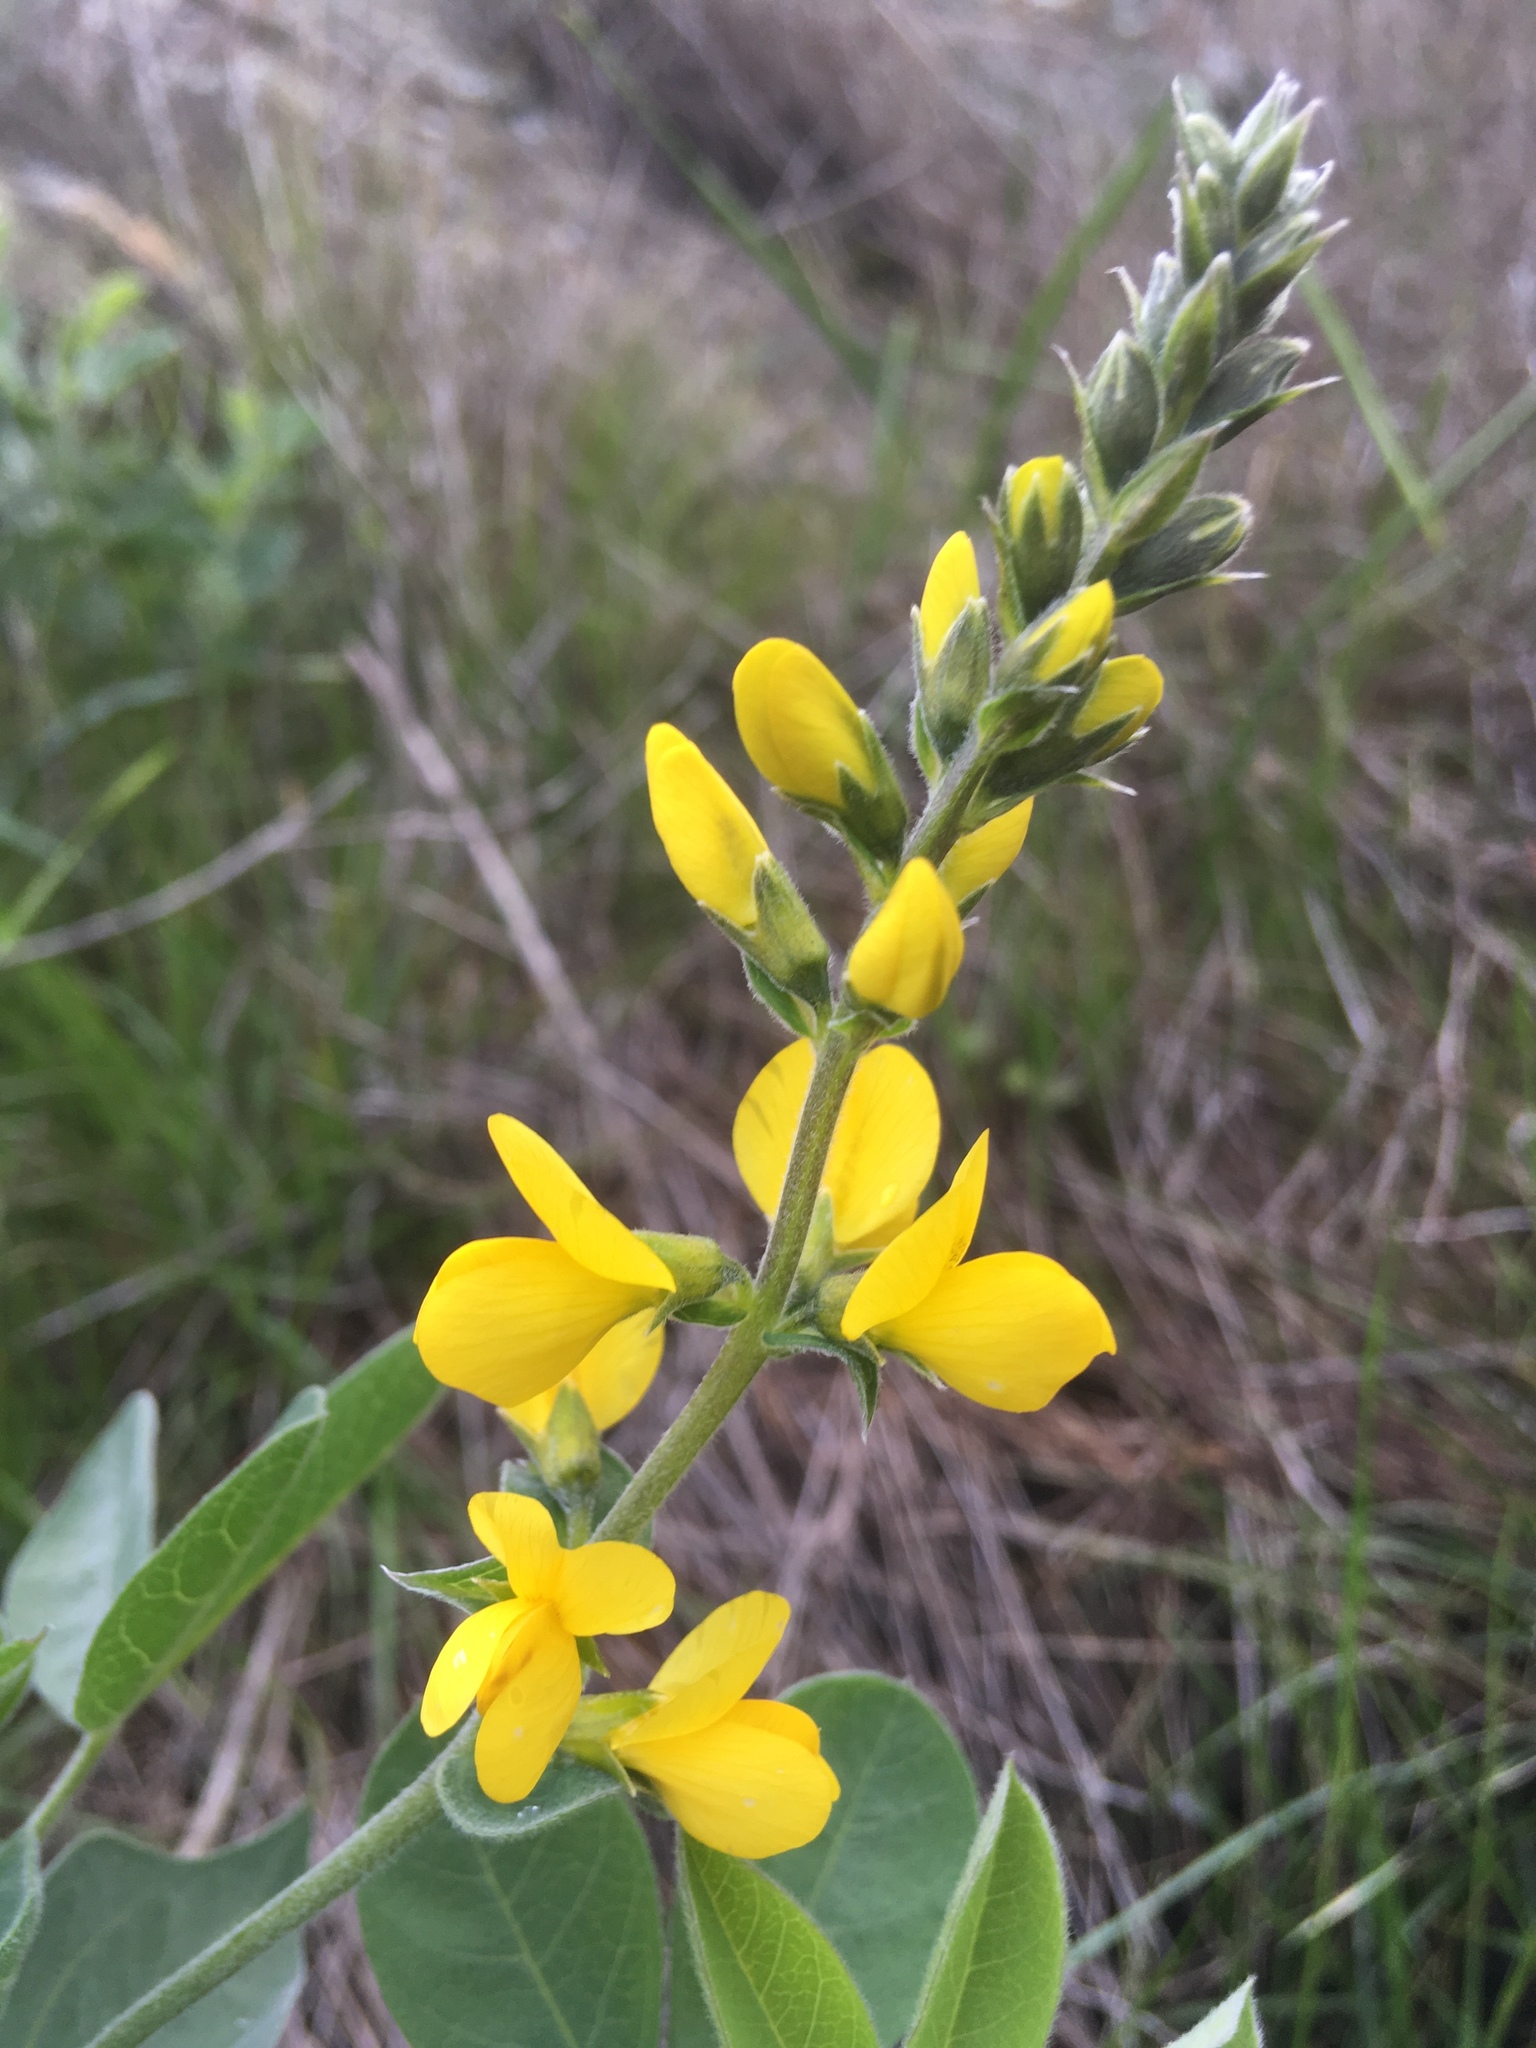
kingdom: Plantae
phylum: Tracheophyta
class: Magnoliopsida
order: Fabales
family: Fabaceae
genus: Thermopsis
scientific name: Thermopsis californica
